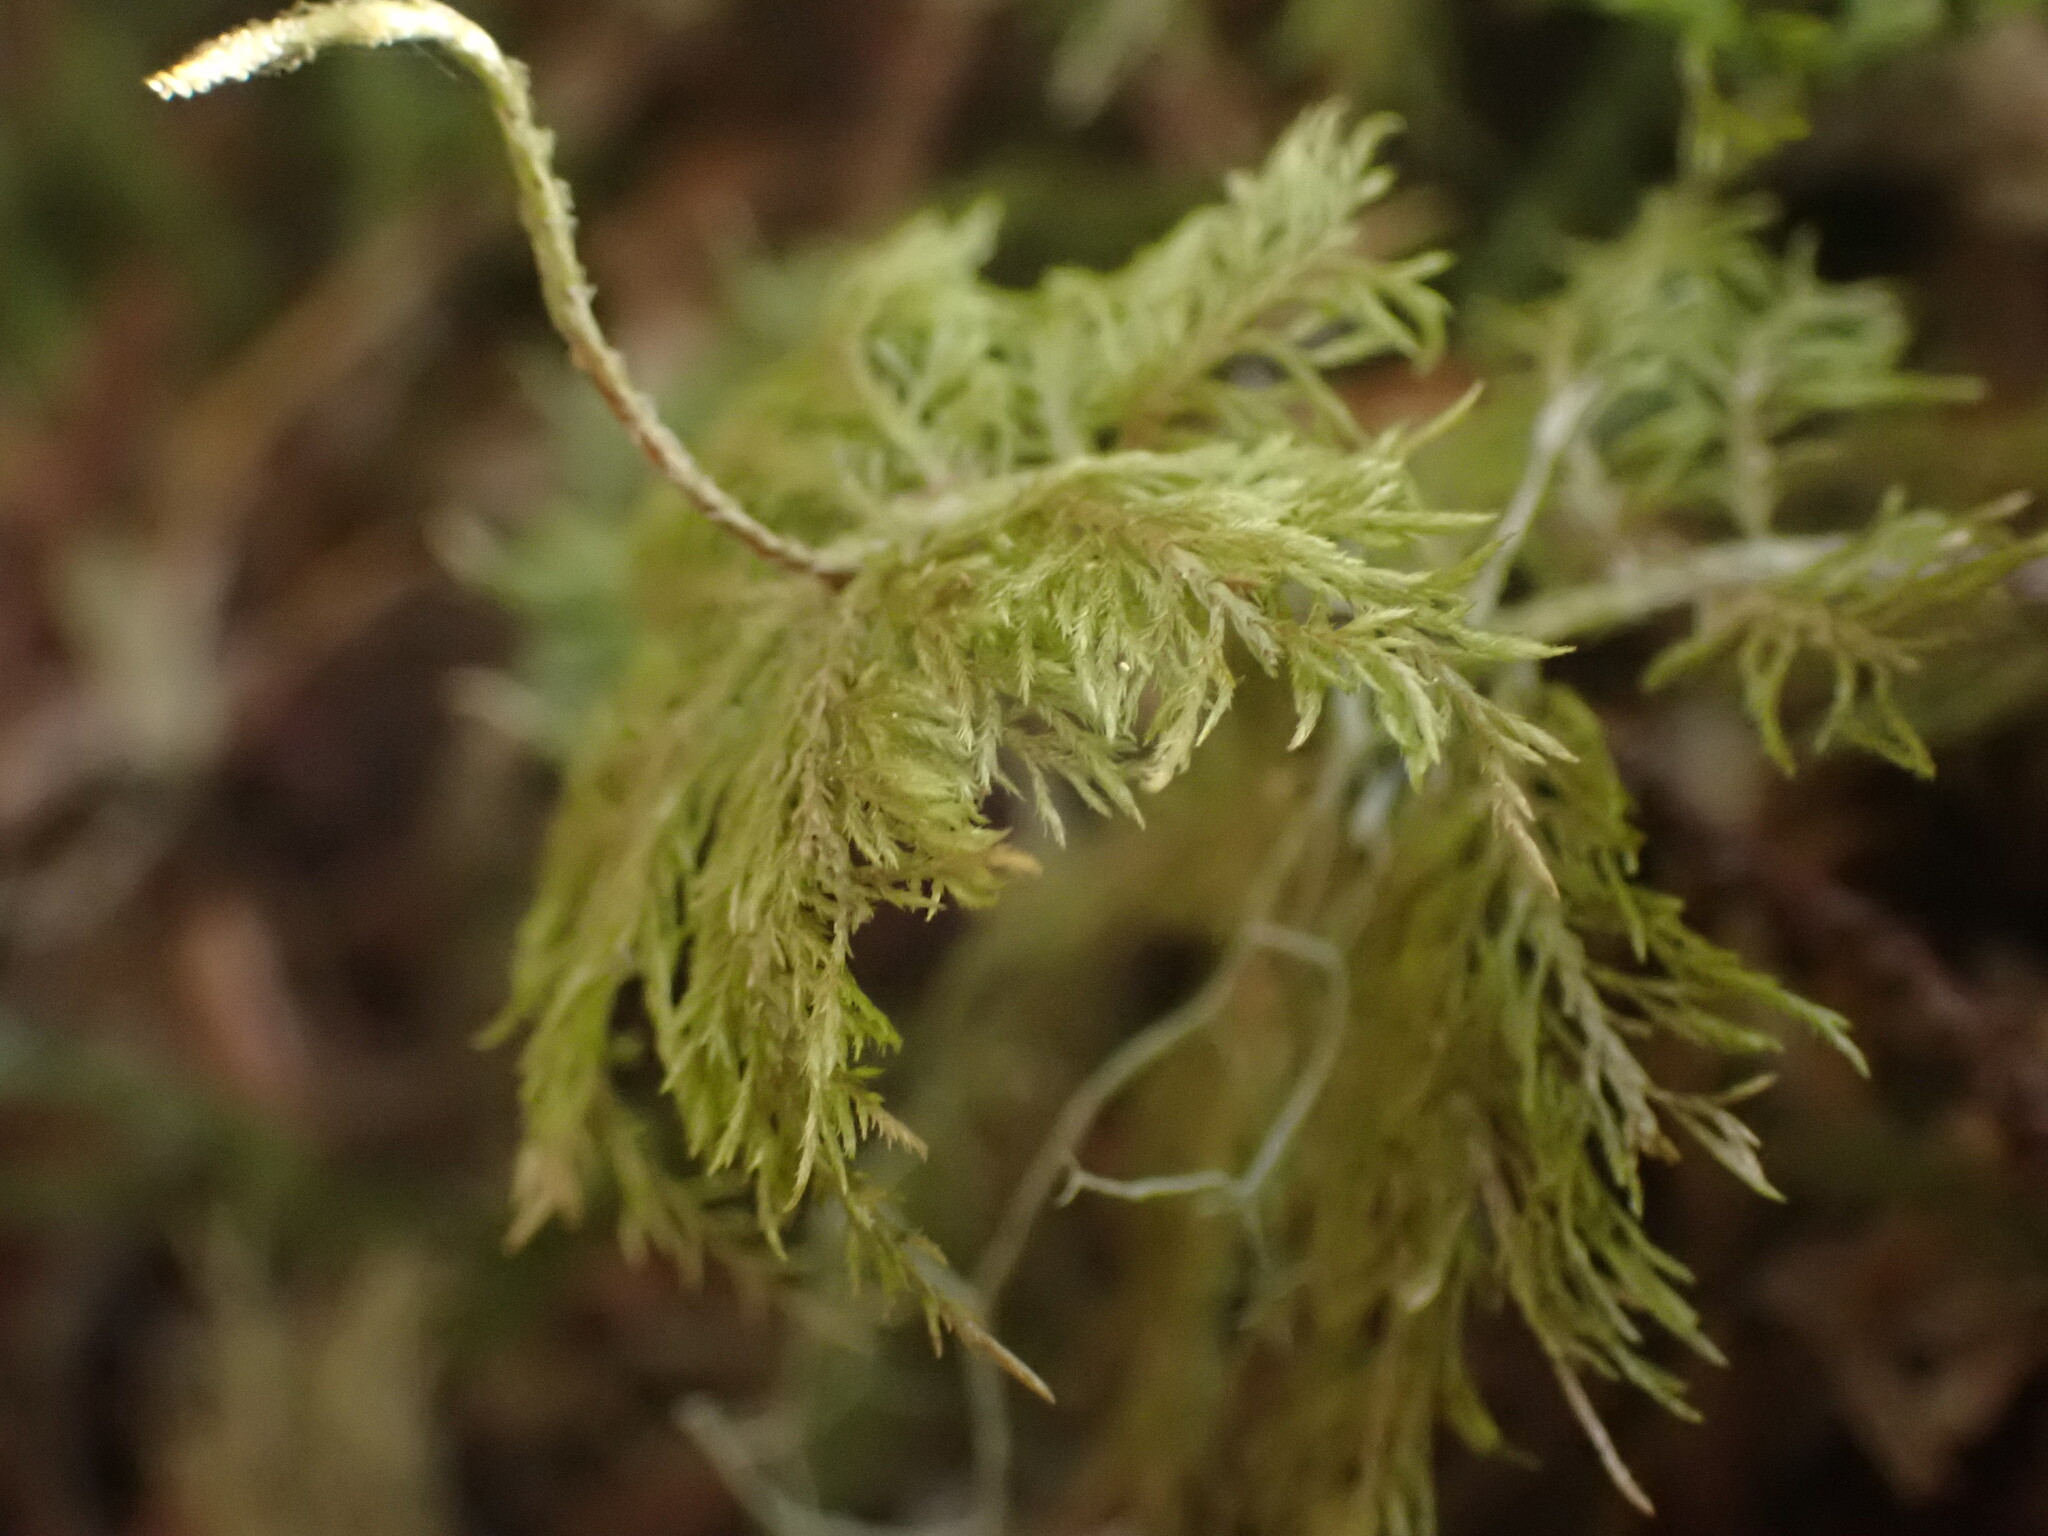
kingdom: Plantae
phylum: Bryophyta
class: Bryopsida
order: Hypnales
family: Hylocomiaceae
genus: Hylocomium
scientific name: Hylocomium splendens
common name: Stairstep moss
